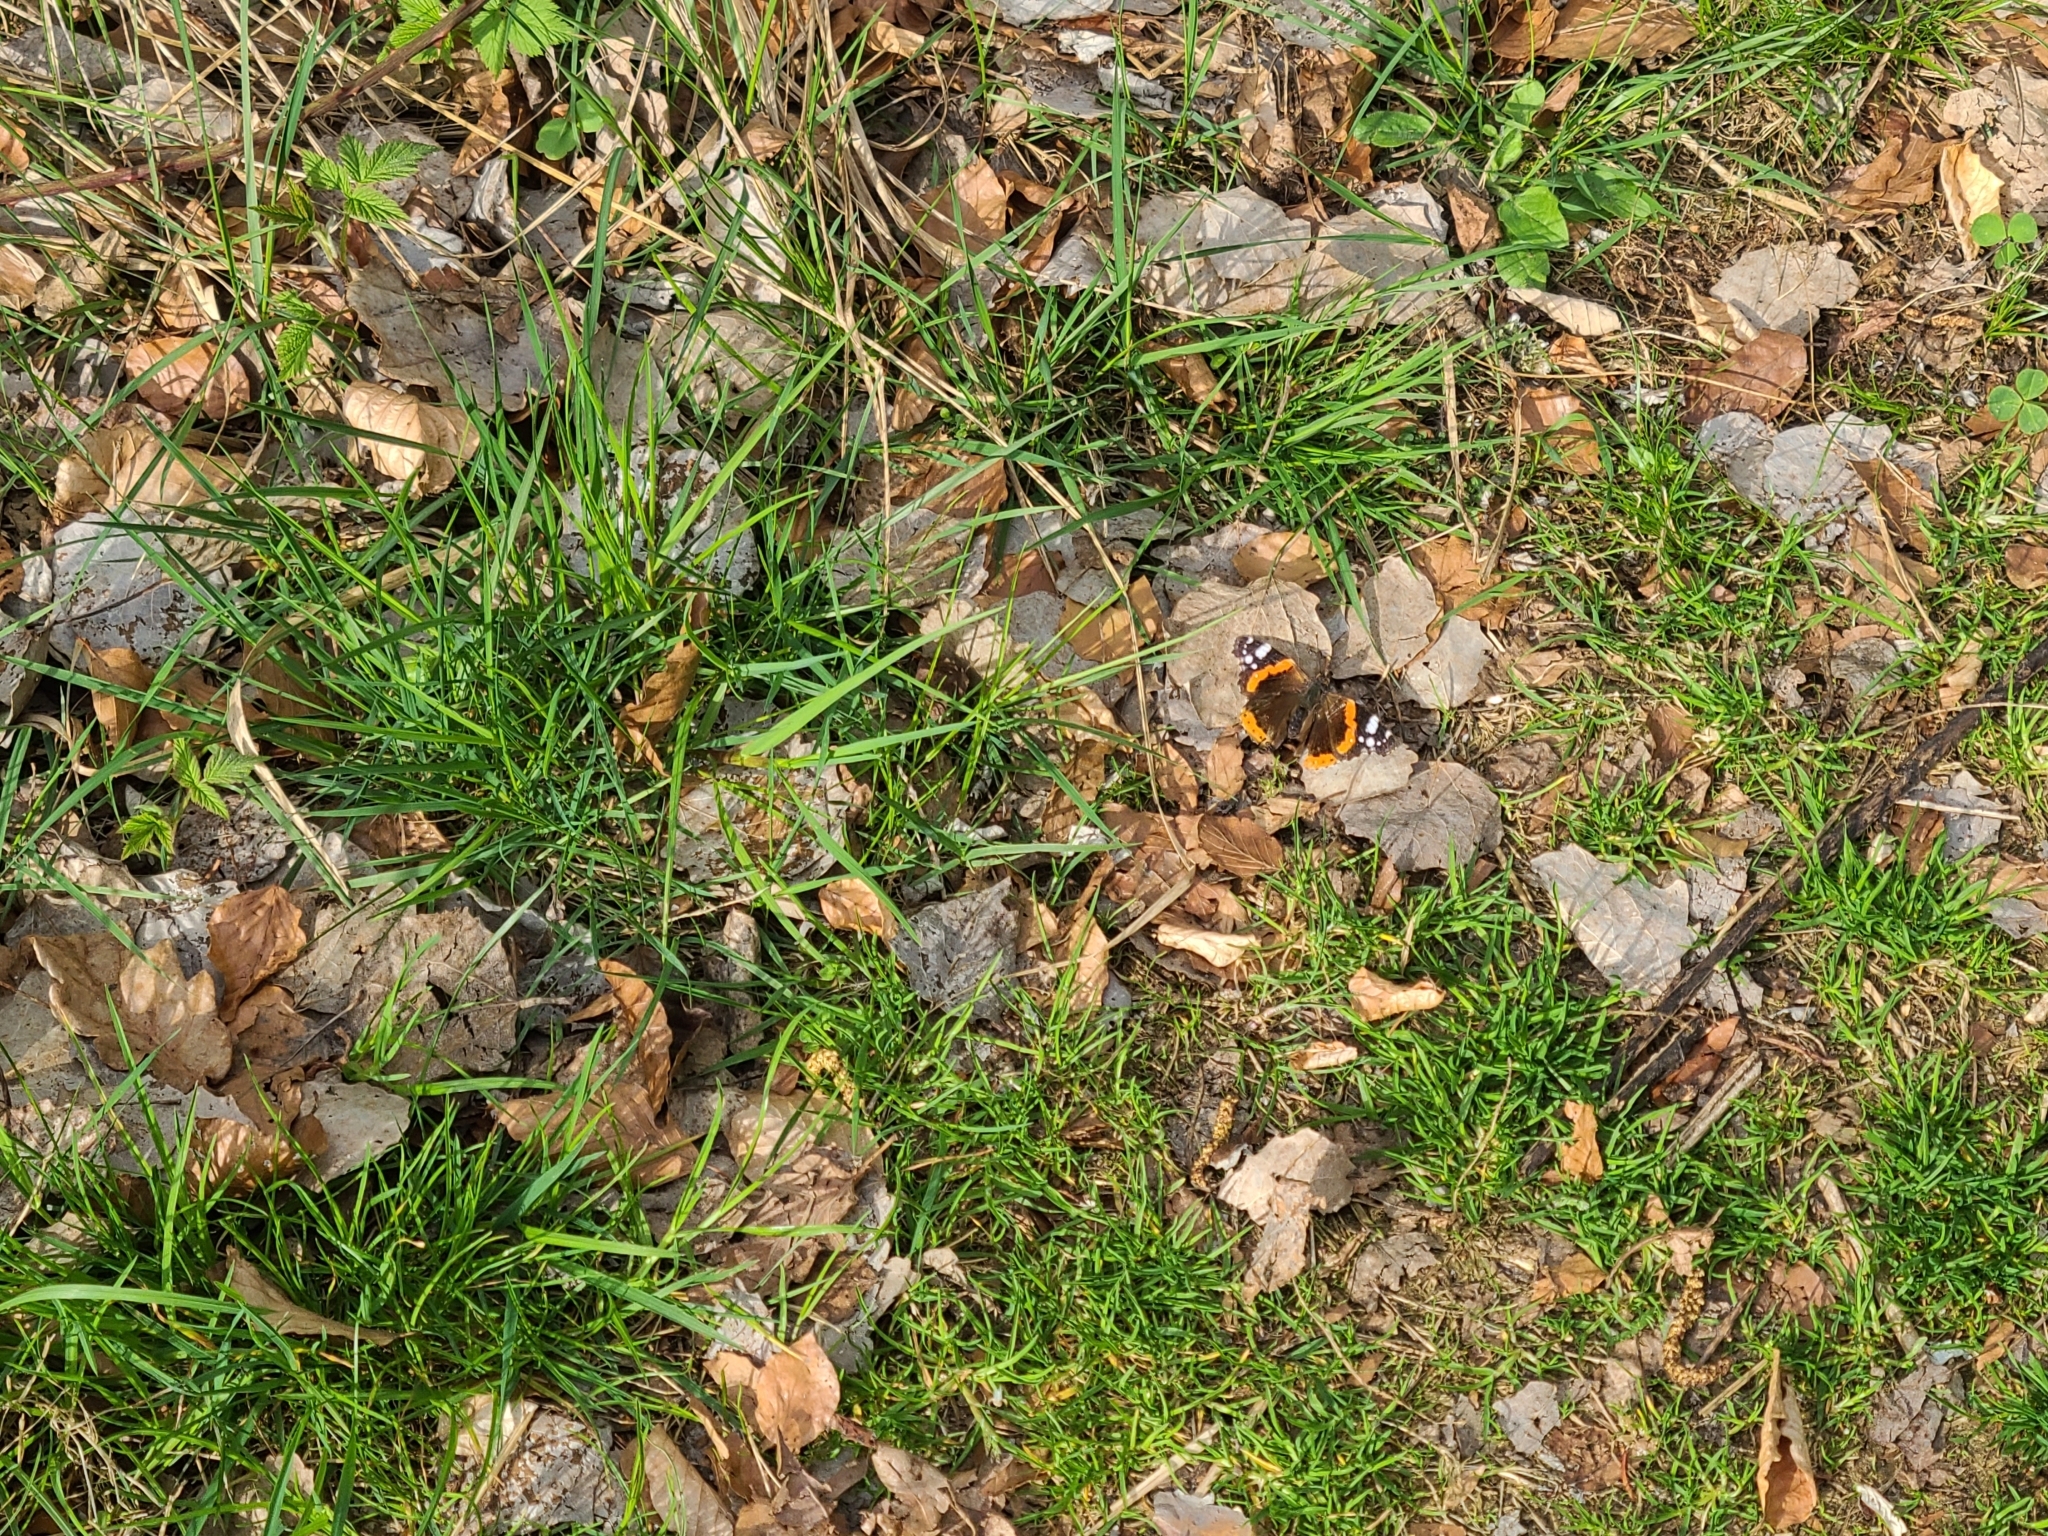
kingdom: Animalia
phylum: Arthropoda
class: Insecta
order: Lepidoptera
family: Nymphalidae
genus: Vanessa
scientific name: Vanessa atalanta
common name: Red admiral
